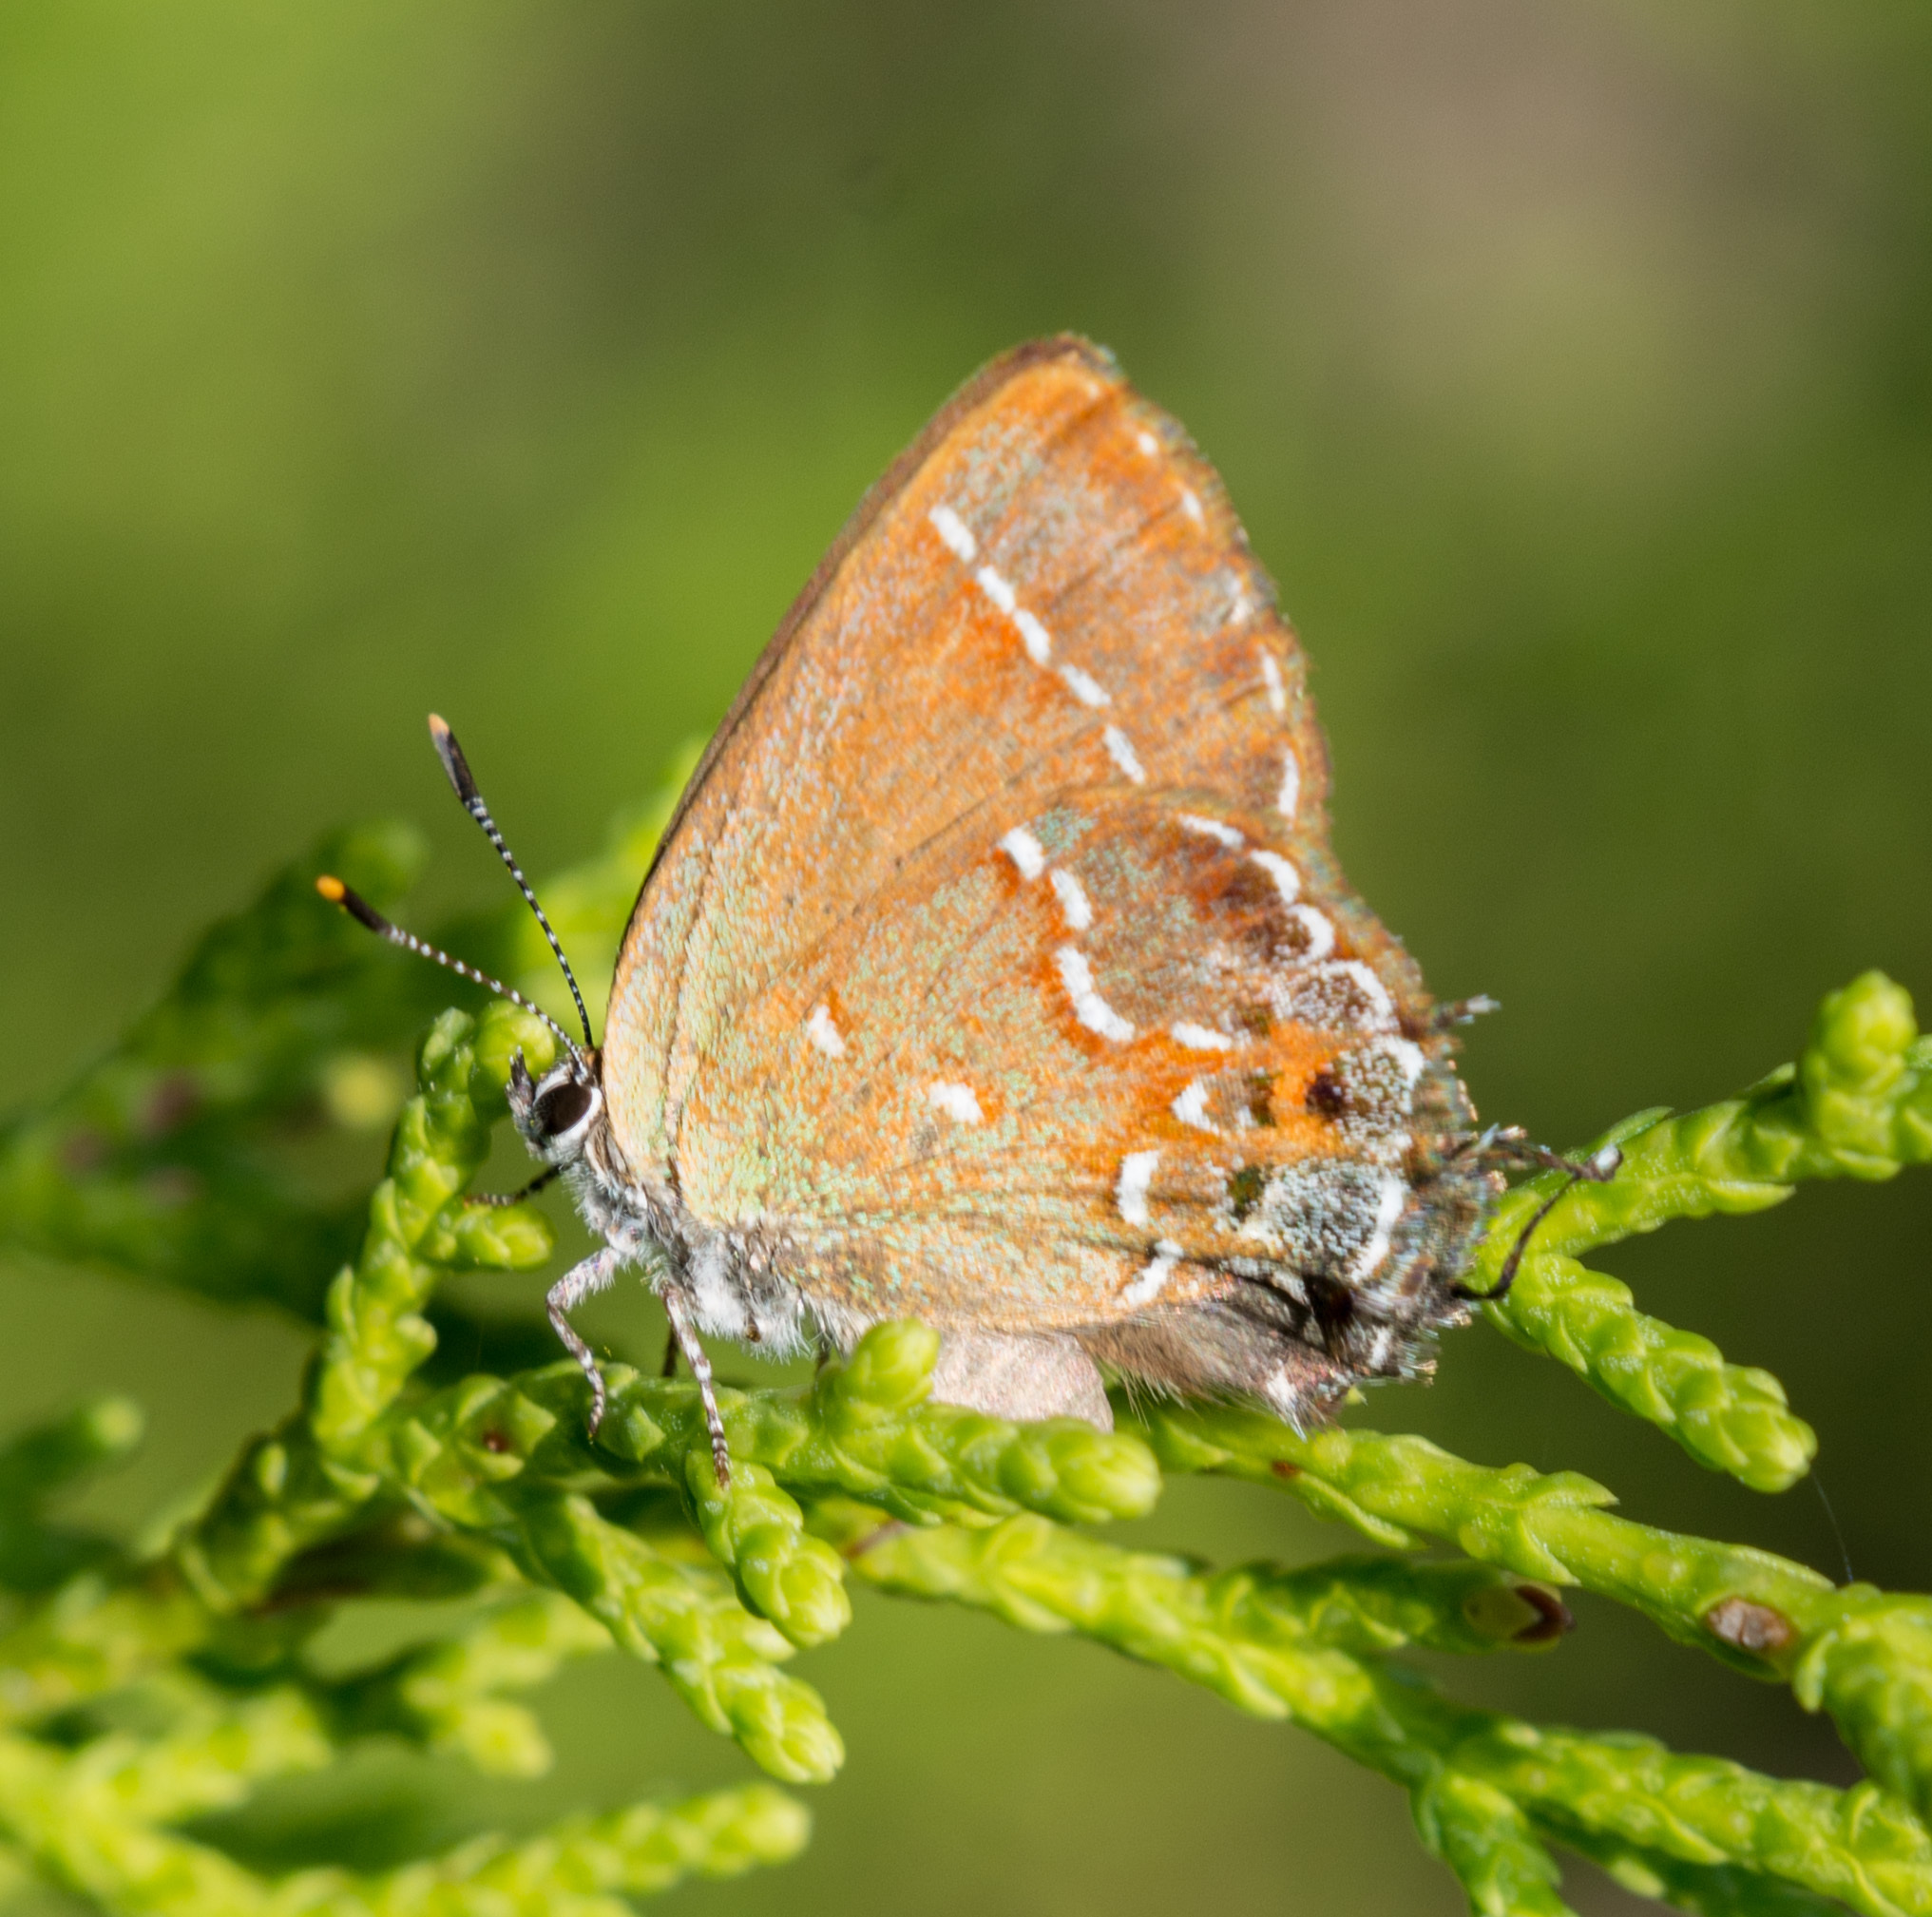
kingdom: Animalia
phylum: Arthropoda
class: Insecta
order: Lepidoptera
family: Lycaenidae
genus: Mitoura
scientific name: Mitoura gryneus
